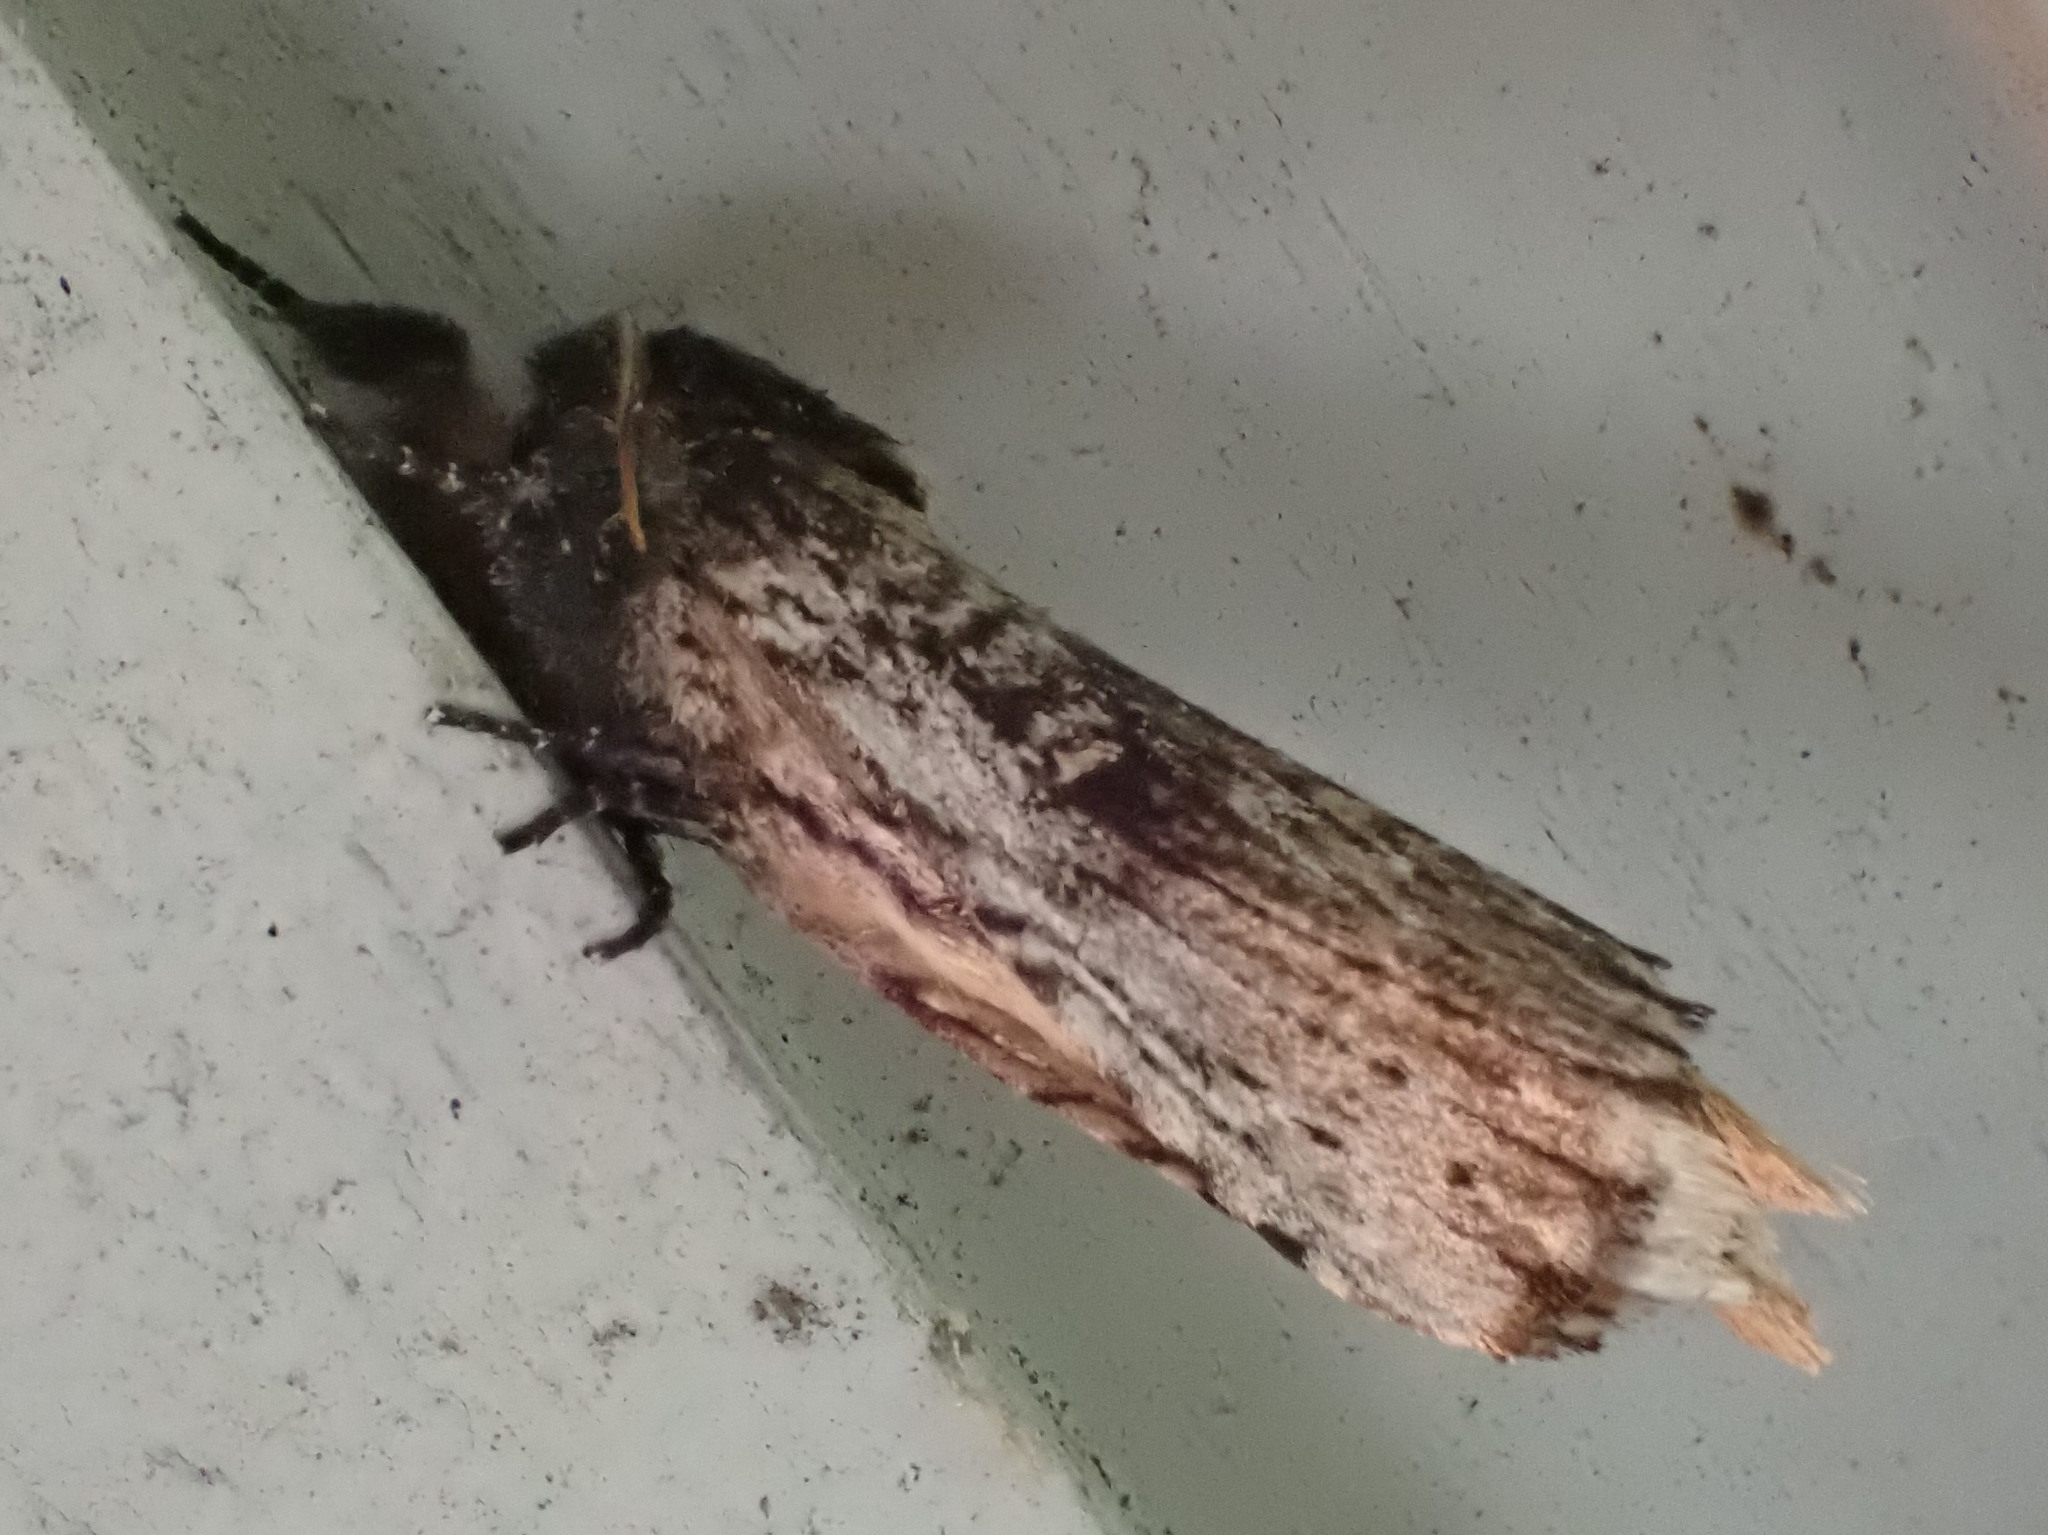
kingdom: Animalia
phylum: Arthropoda
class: Insecta
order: Lepidoptera
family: Notodontidae
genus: Schizura
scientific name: Schizura ipomaeae
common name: Morning-glory prominent
